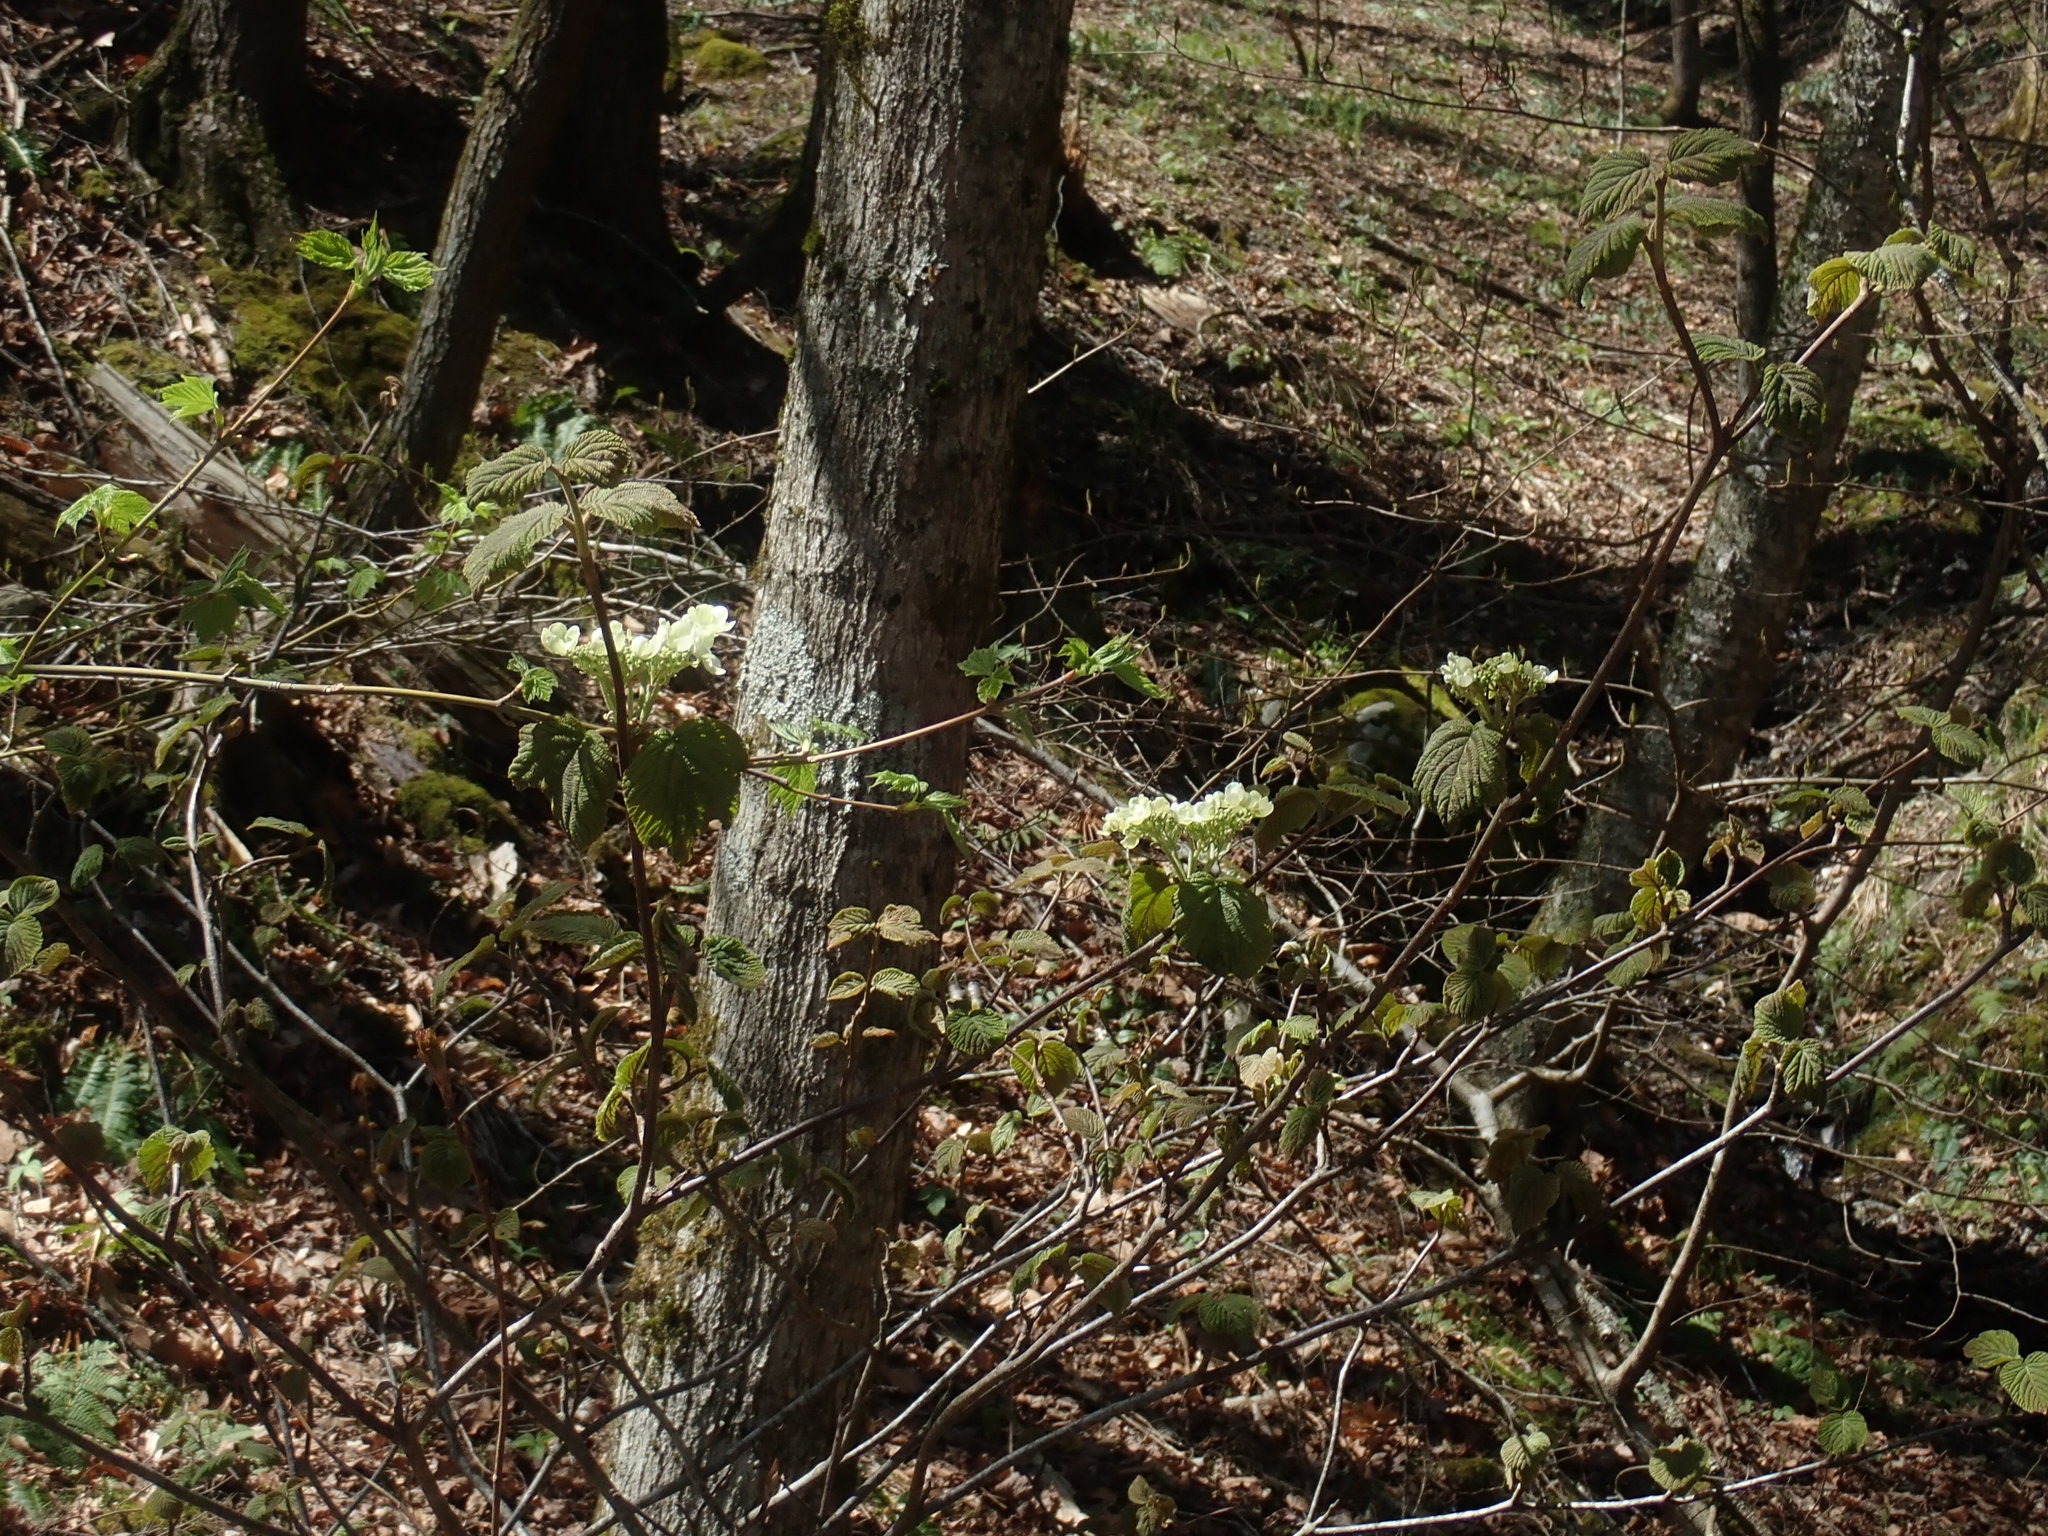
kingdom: Plantae
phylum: Tracheophyta
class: Magnoliopsida
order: Dipsacales
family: Viburnaceae
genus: Viburnum
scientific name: Viburnum lantanoides
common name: Hobblebush
